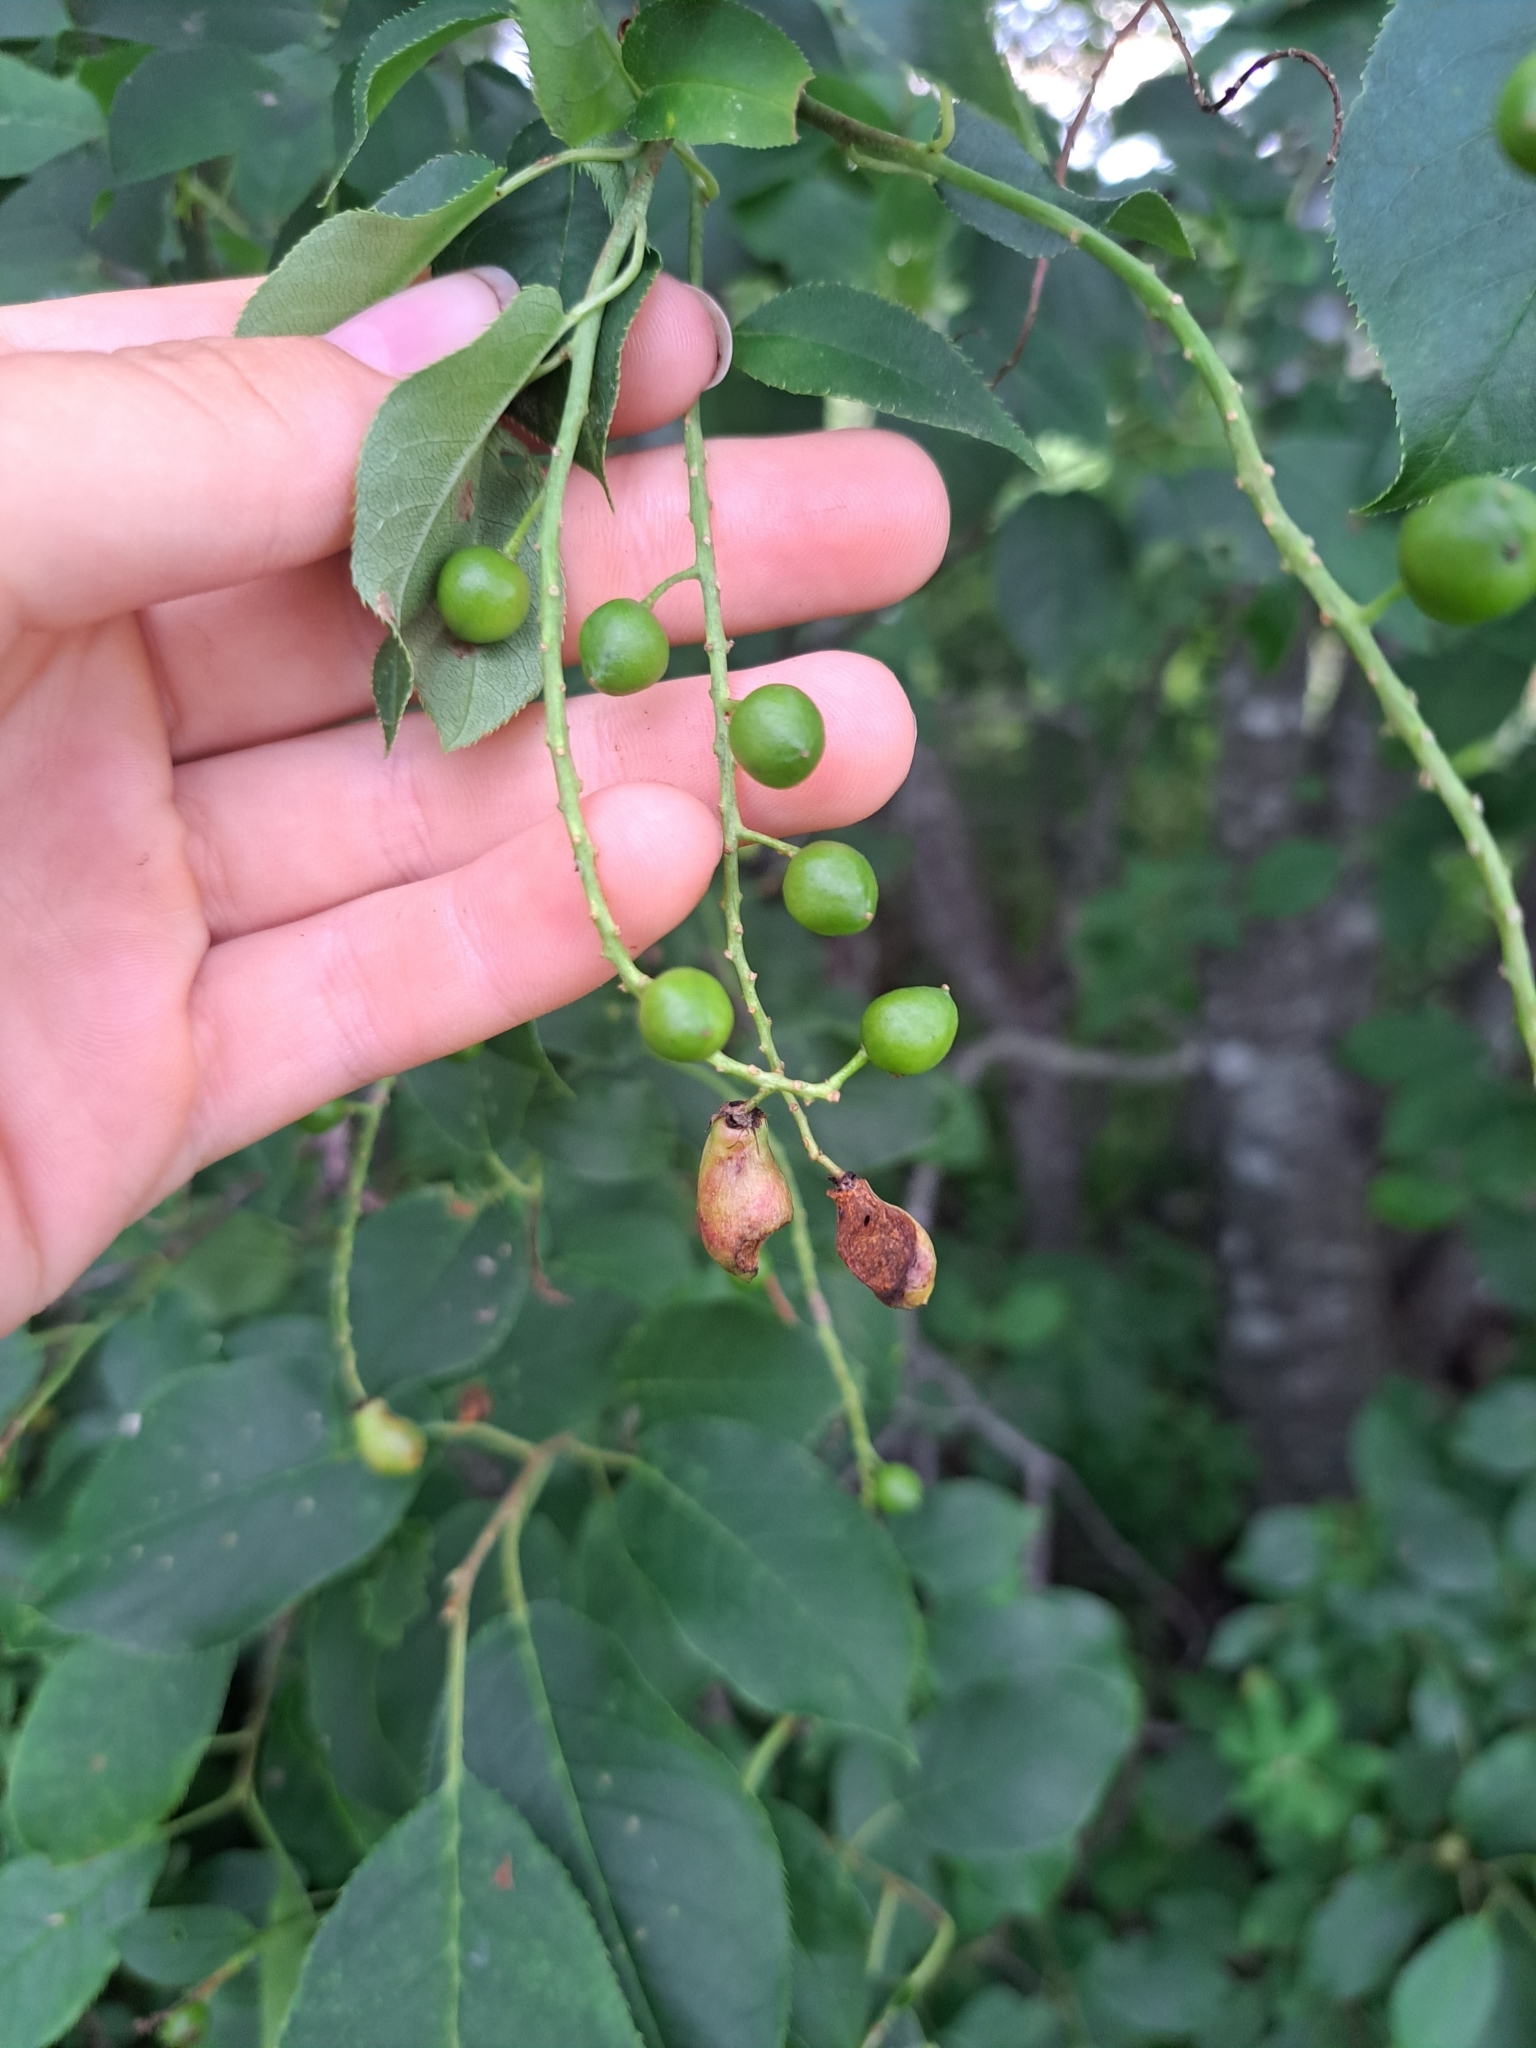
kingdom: Plantae
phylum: Tracheophyta
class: Magnoliopsida
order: Rosales
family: Rosaceae
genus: Prunus
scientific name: Prunus virginiana
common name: Chokecherry
